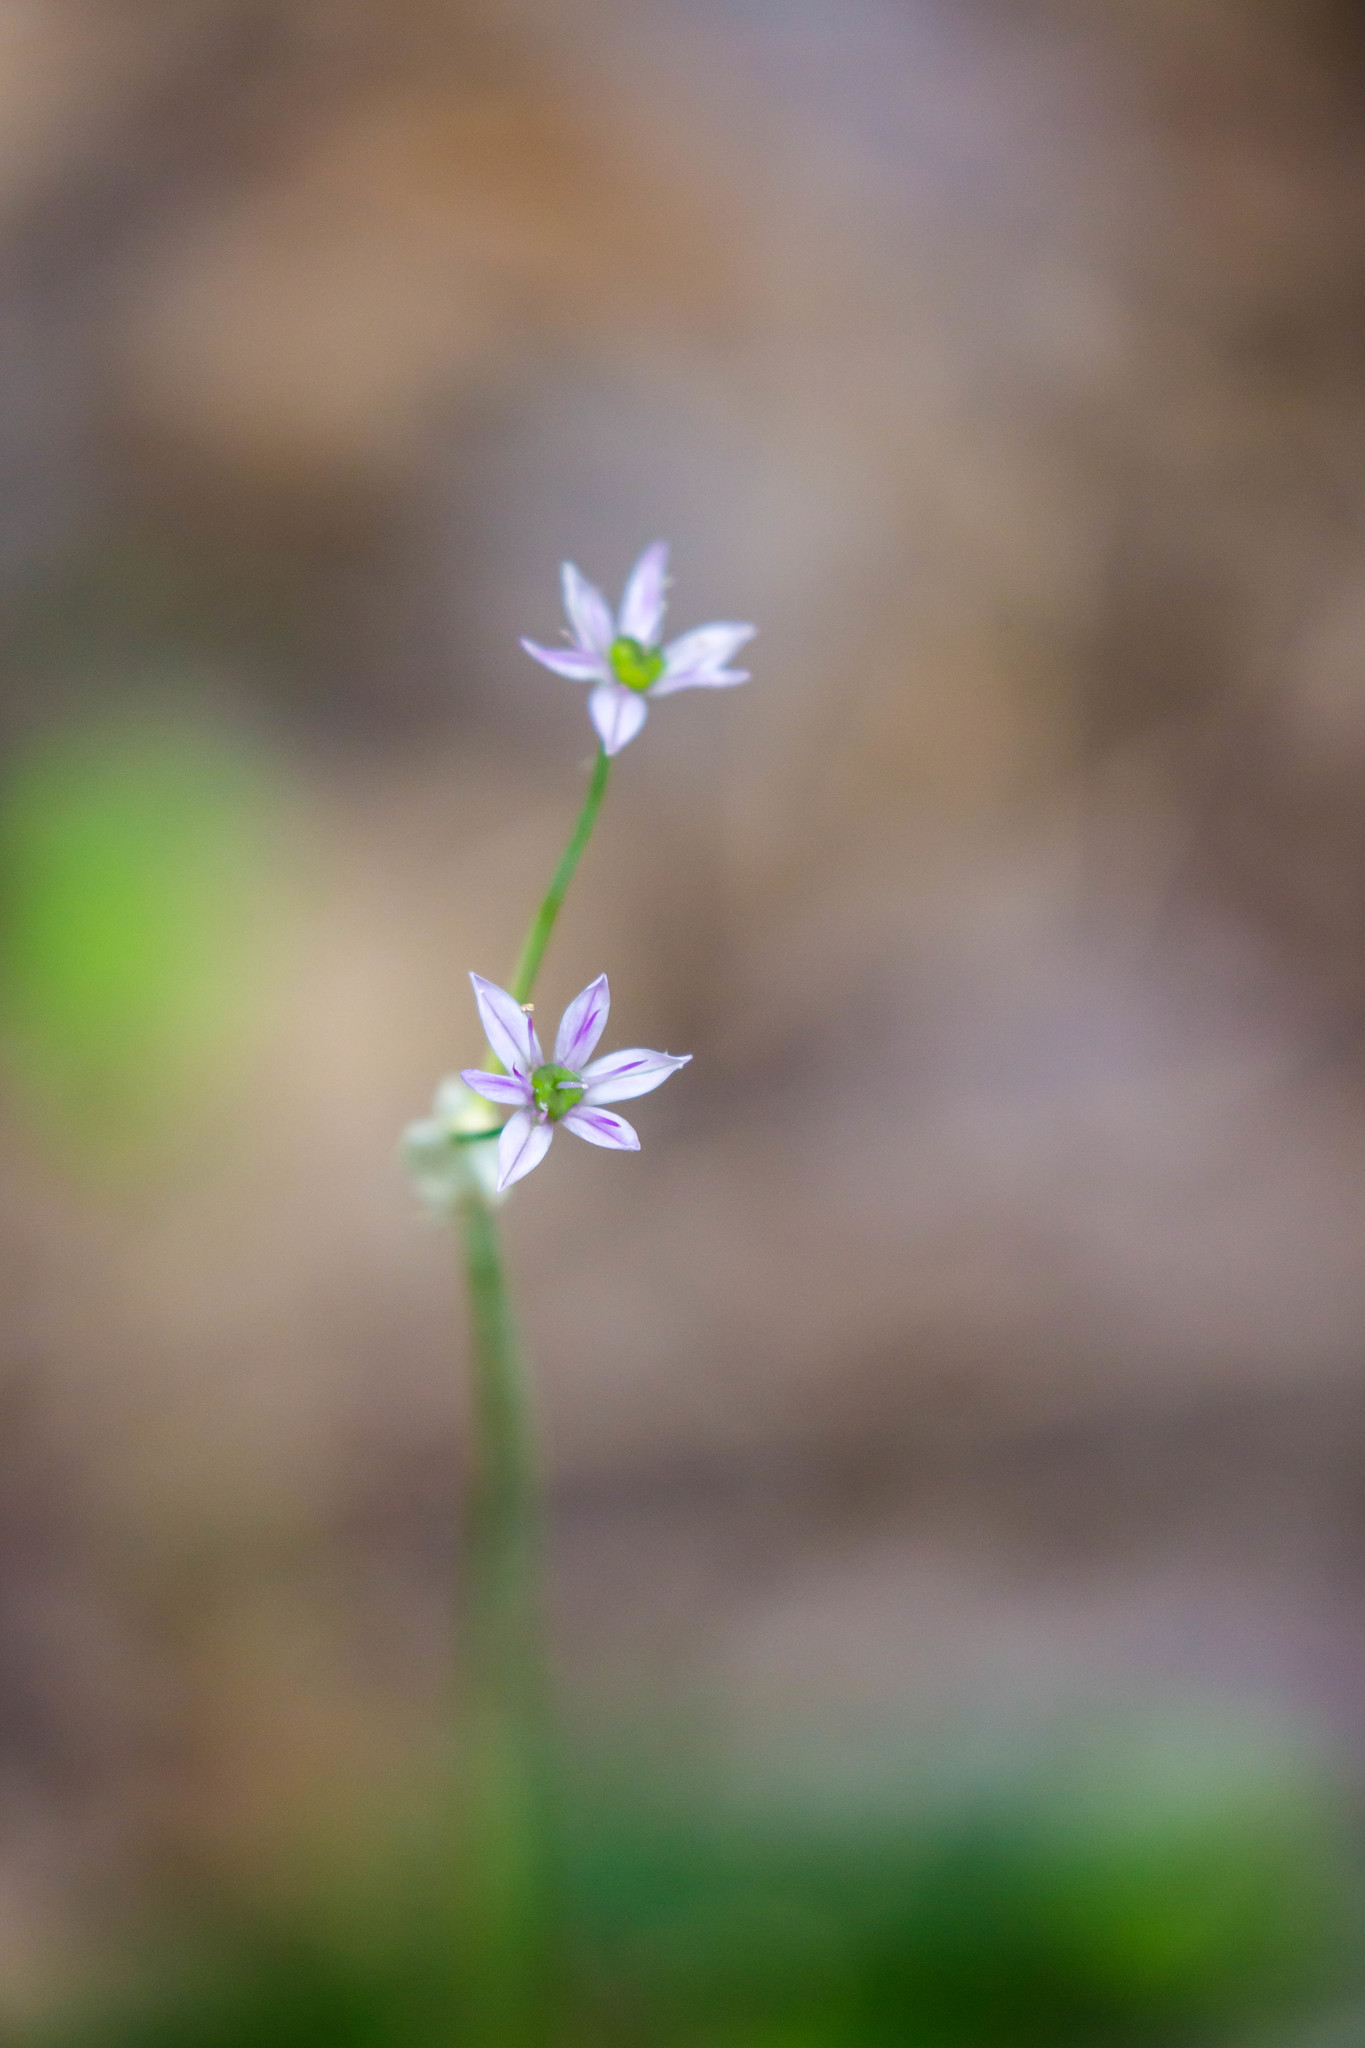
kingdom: Plantae
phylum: Tracheophyta
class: Liliopsida
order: Asparagales
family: Amaryllidaceae
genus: Allium
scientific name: Allium canadense
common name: Meadow garlic
